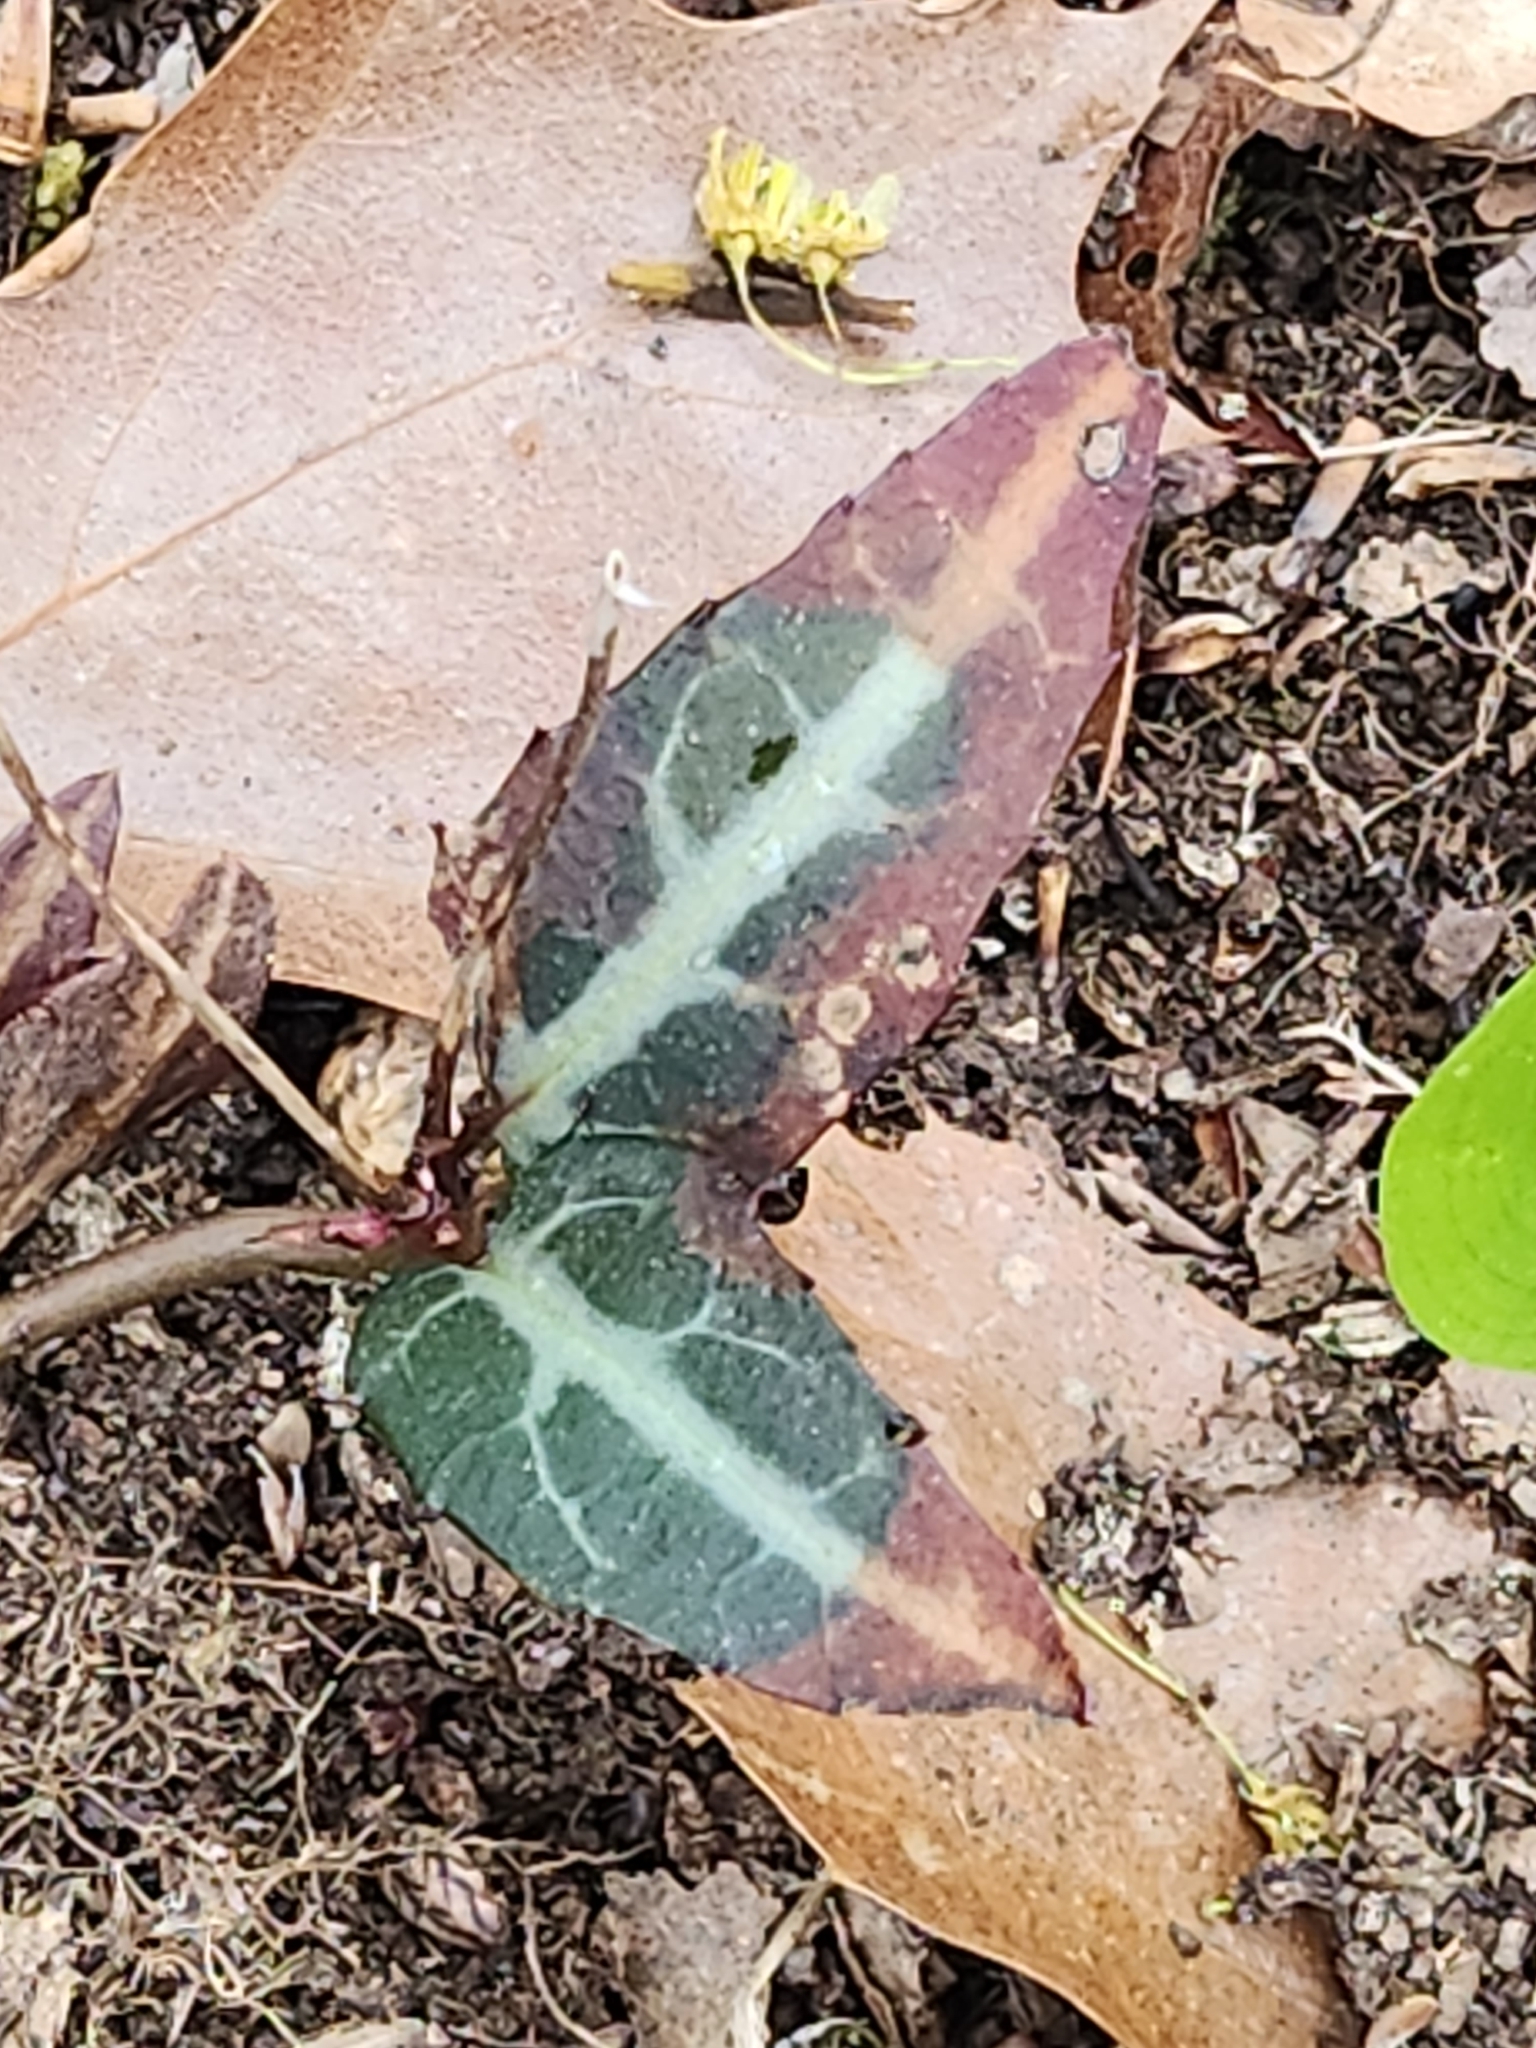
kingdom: Plantae
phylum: Tracheophyta
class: Magnoliopsida
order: Ericales
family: Ericaceae
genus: Chimaphila
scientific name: Chimaphila maculata
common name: Spotted pipsissewa
